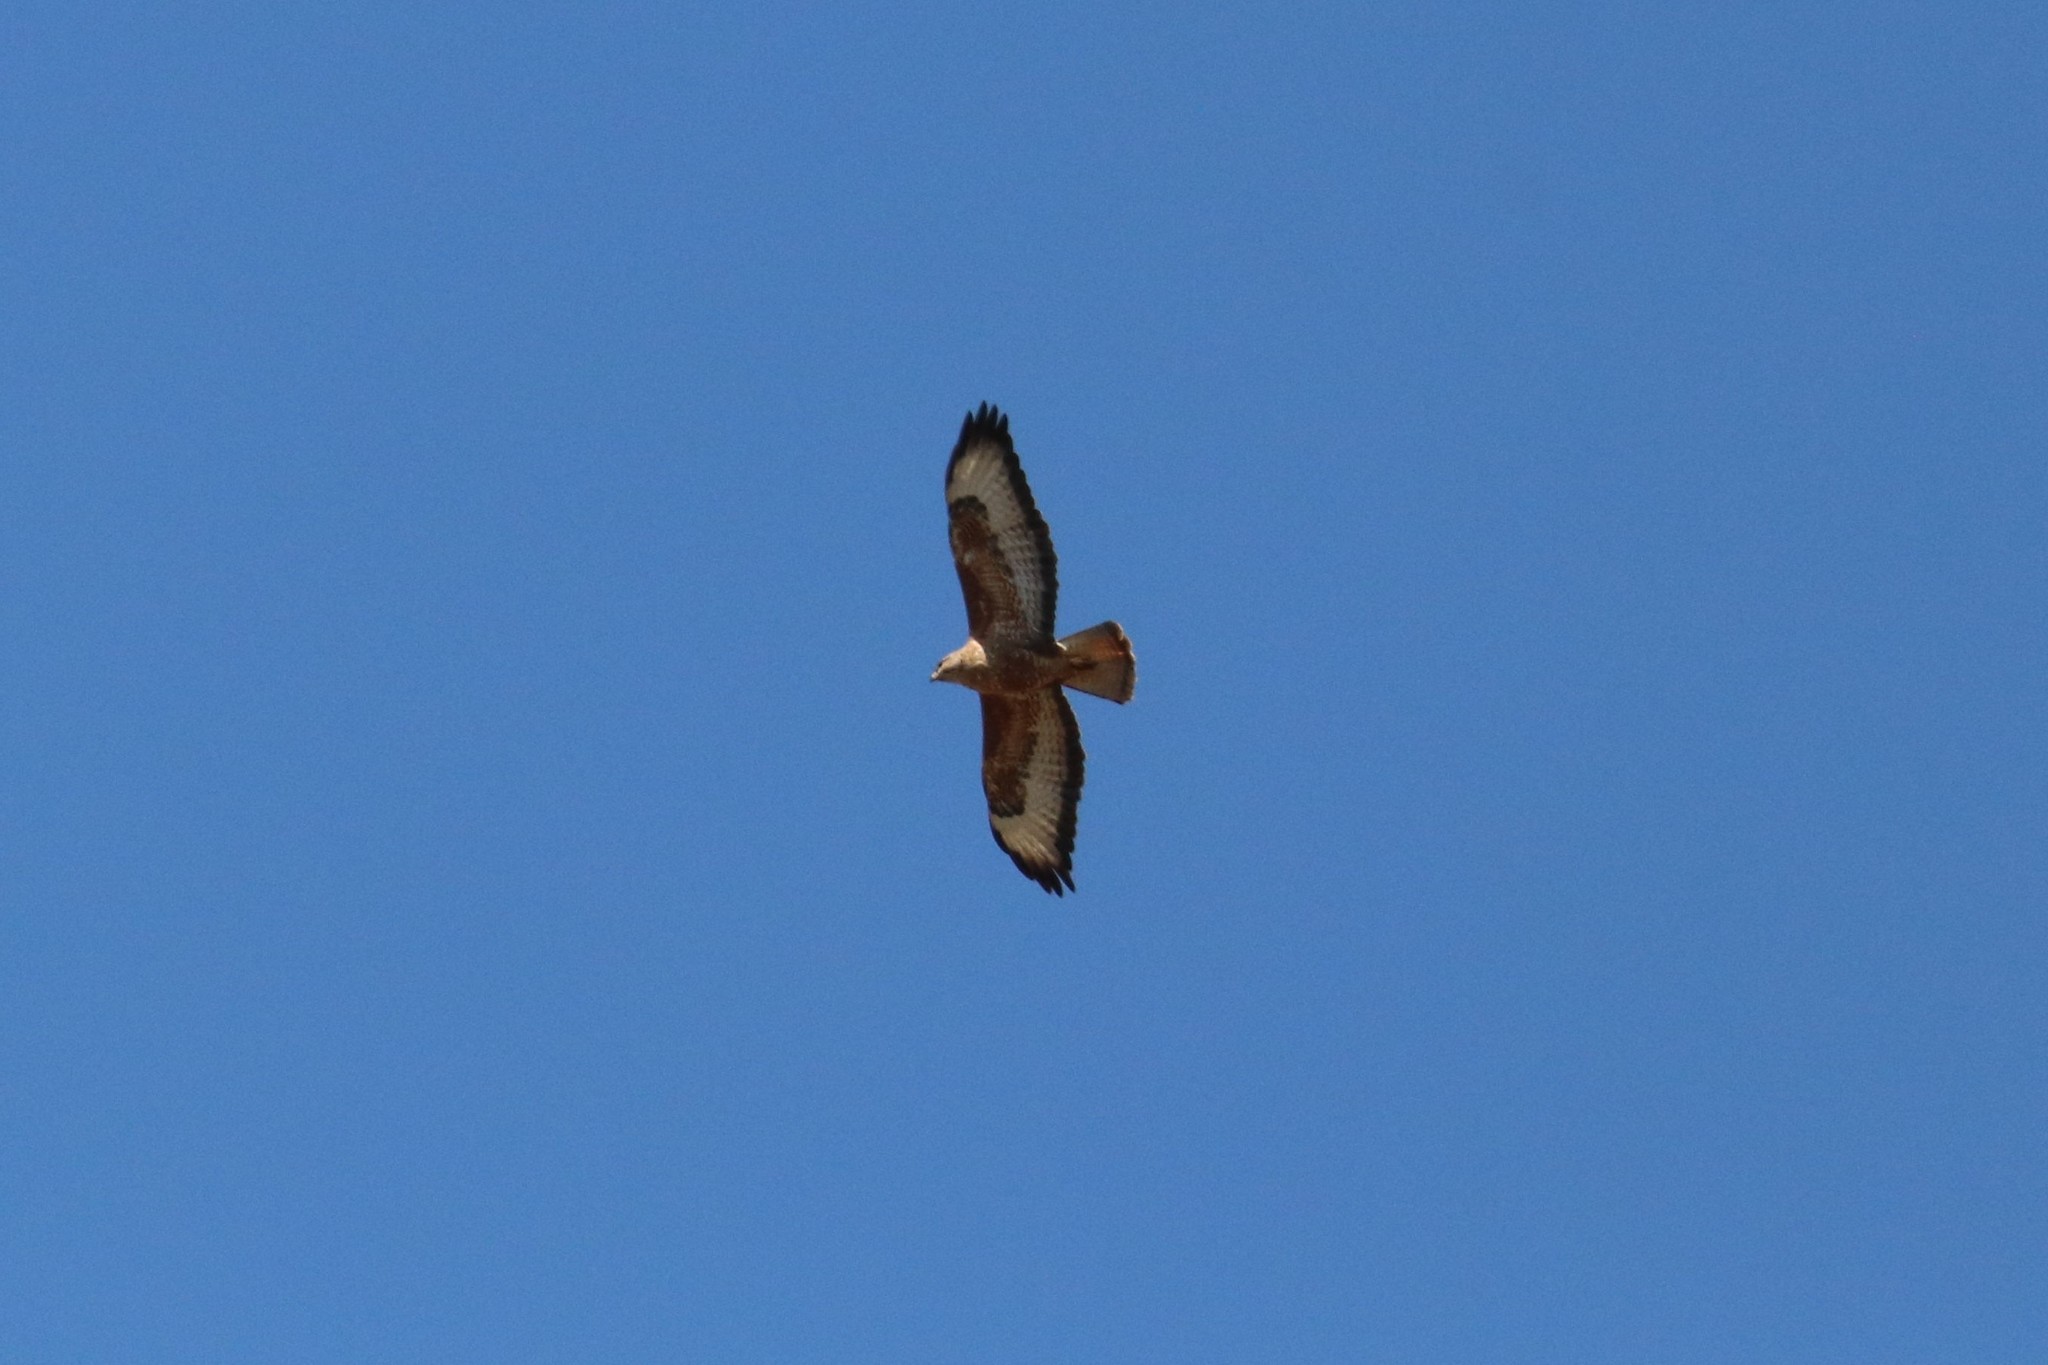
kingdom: Animalia
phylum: Chordata
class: Aves
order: Accipitriformes
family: Accipitridae
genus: Buteo
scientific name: Buteo buteo
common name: Common buzzard
